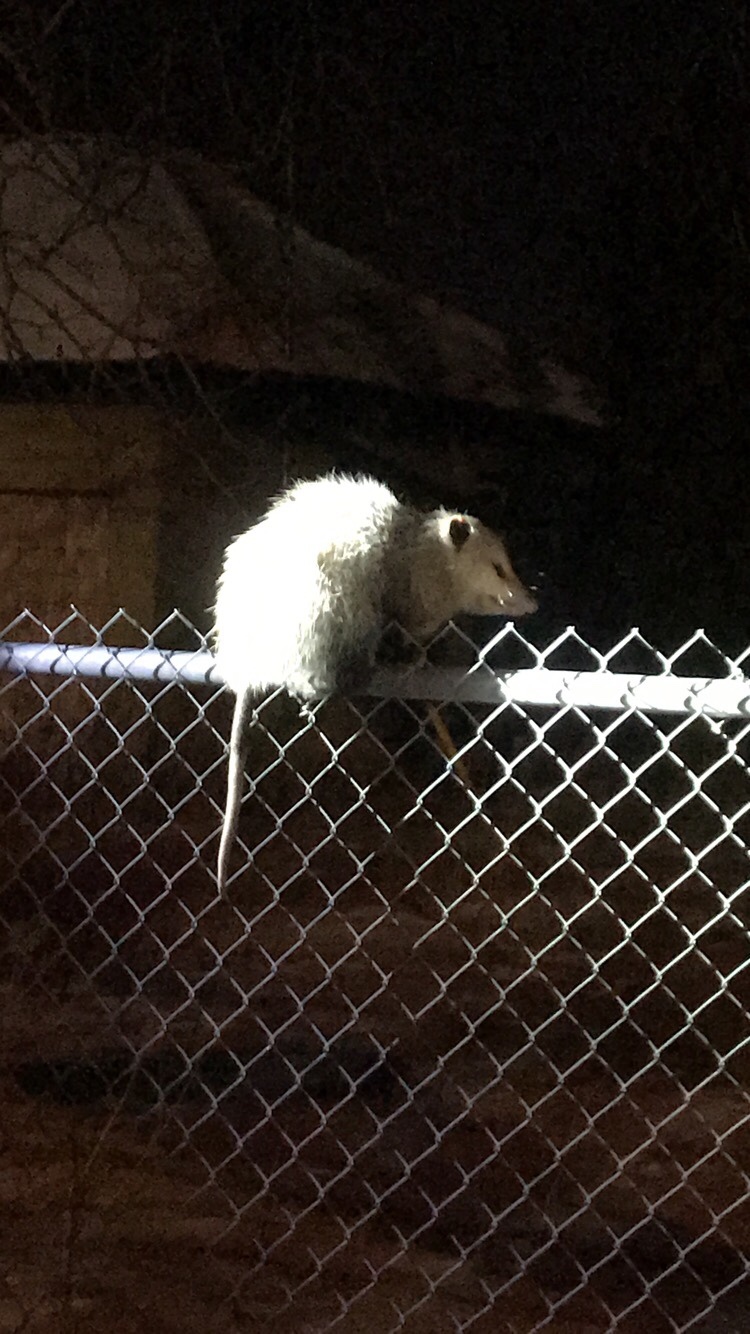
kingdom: Animalia
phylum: Chordata
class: Mammalia
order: Didelphimorphia
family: Didelphidae
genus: Didelphis
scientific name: Didelphis virginiana
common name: Virginia opossum
